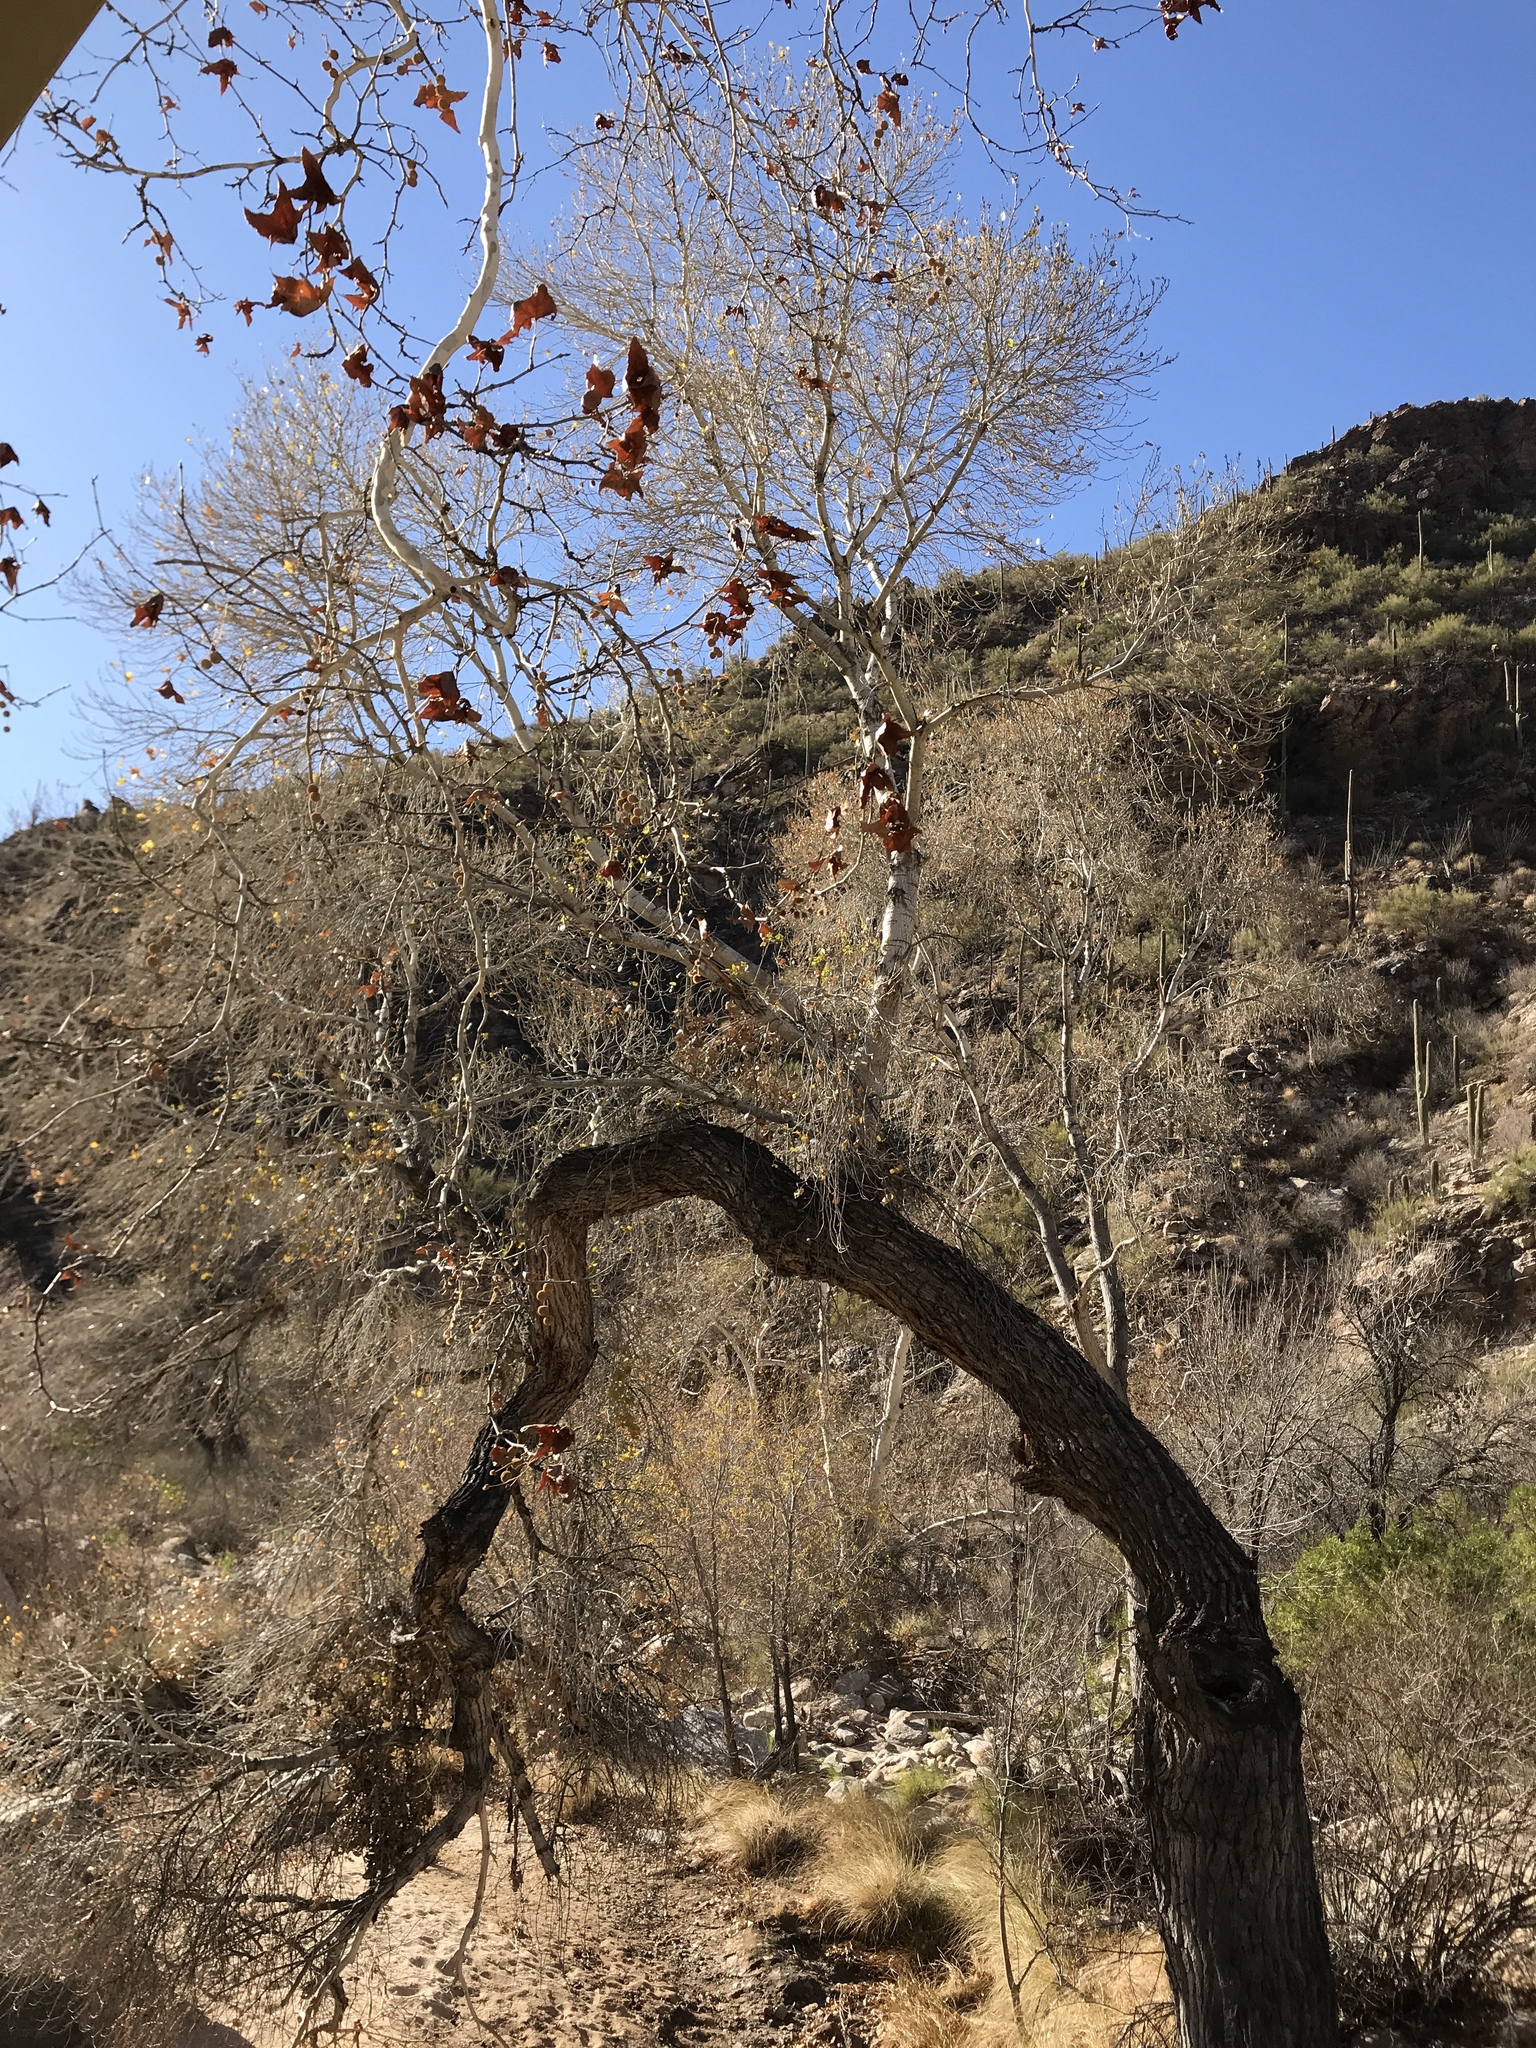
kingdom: Plantae
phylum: Tracheophyta
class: Magnoliopsida
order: Malpighiales
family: Salicaceae
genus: Populus
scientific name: Populus fremontii
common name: Fremont's cottonwood
